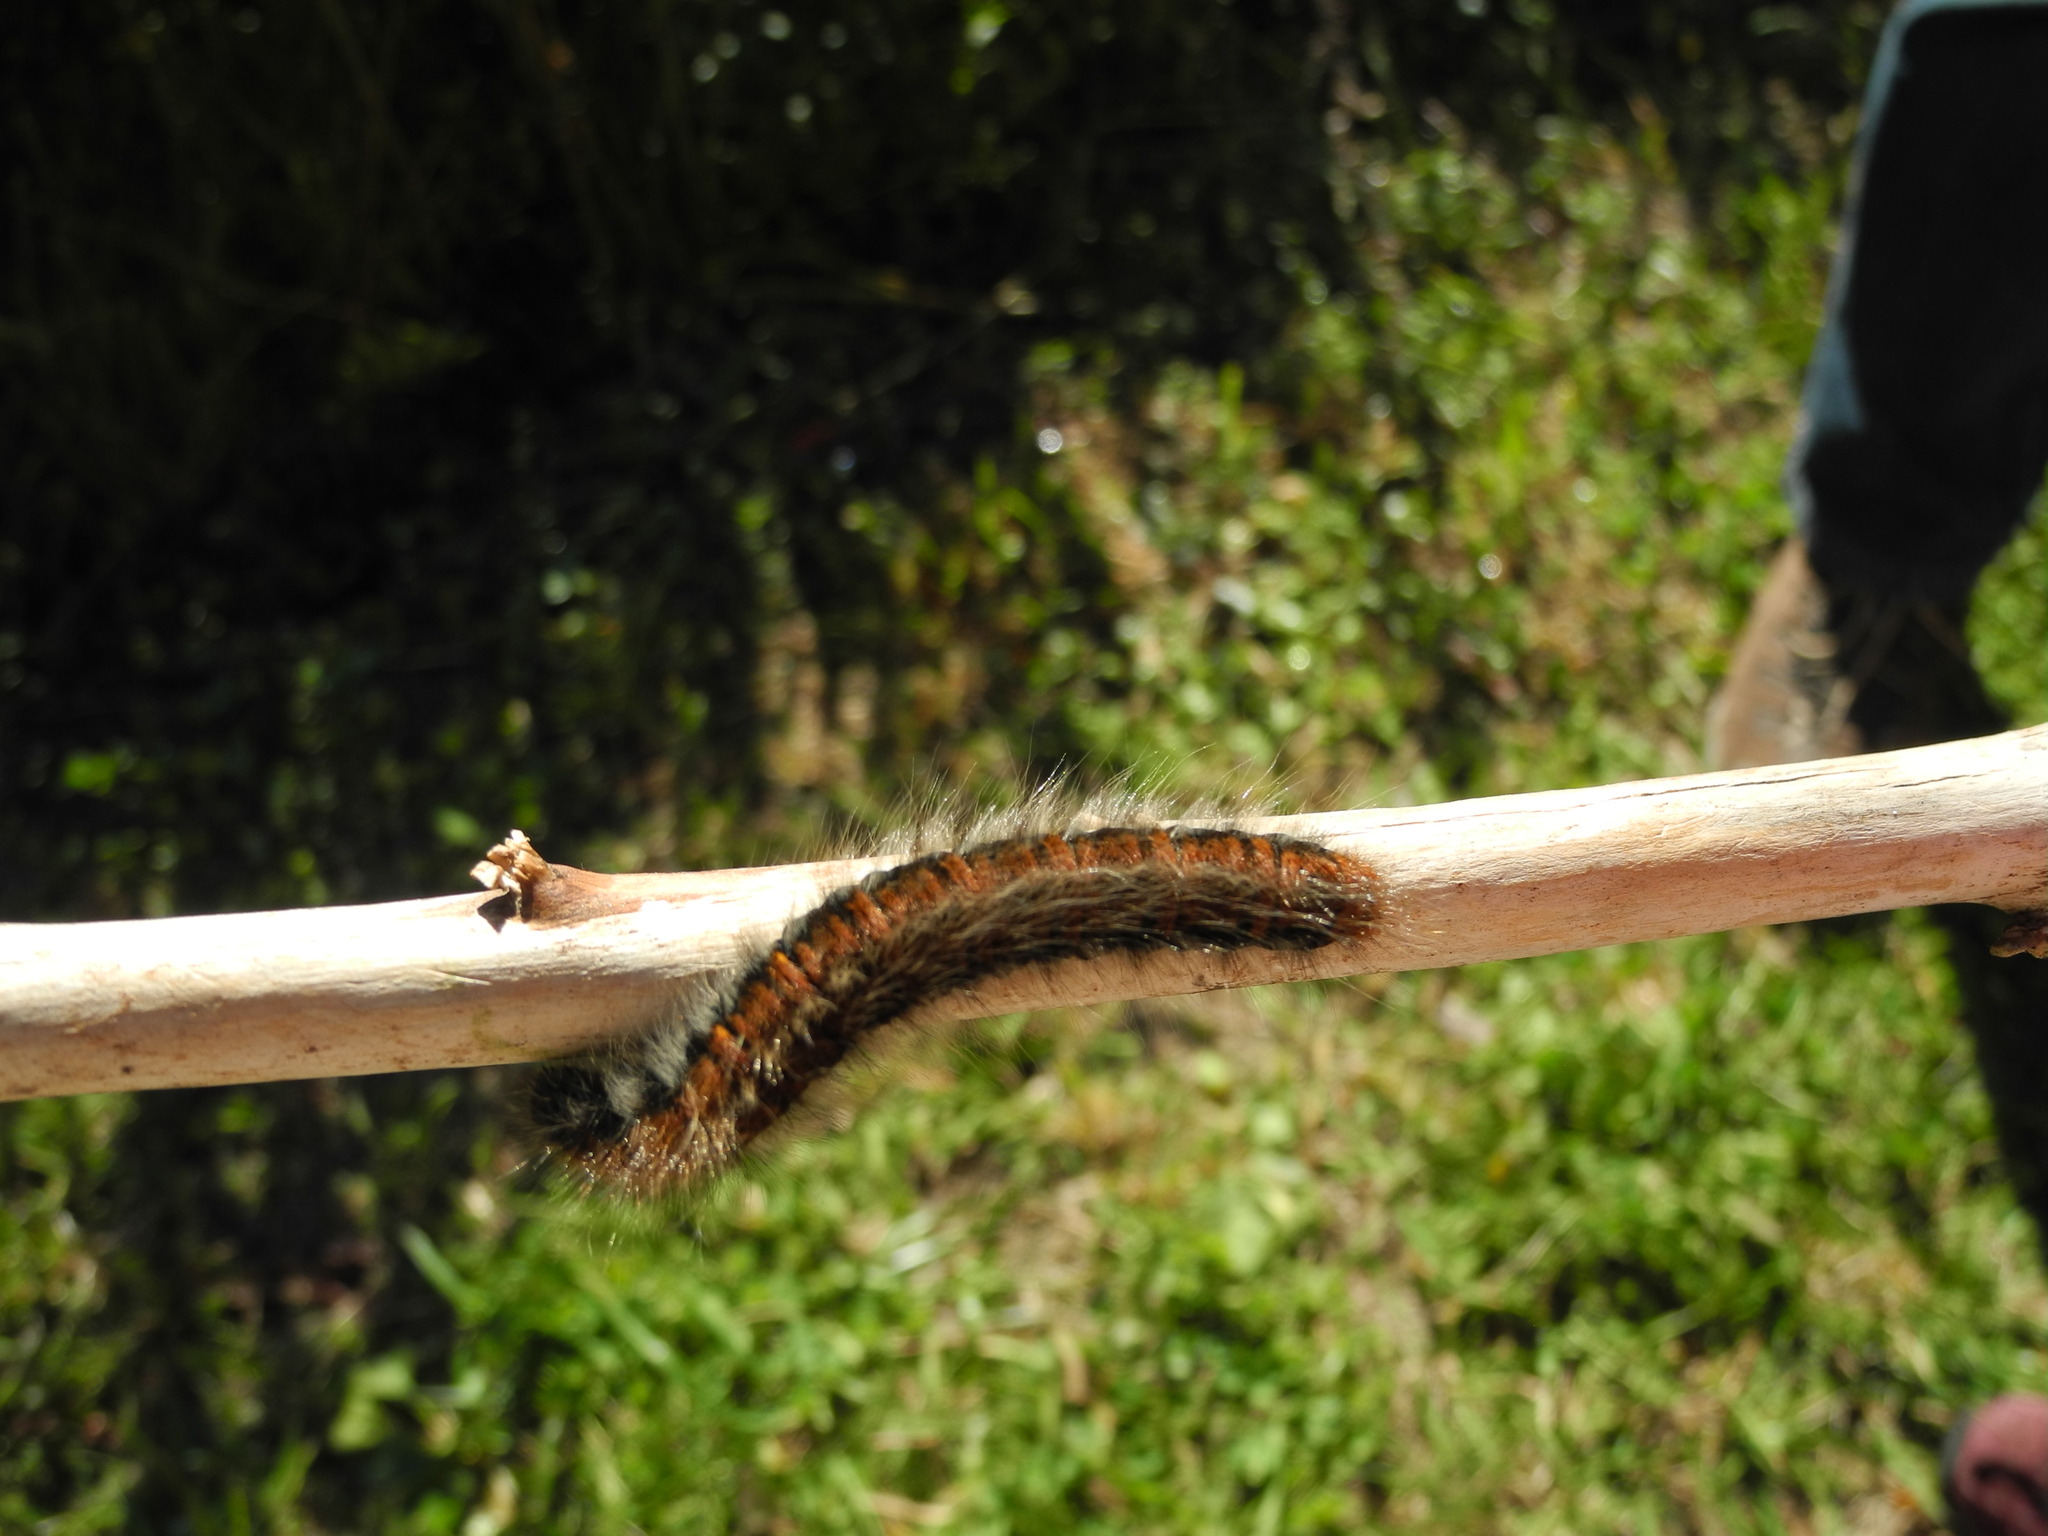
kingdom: Animalia
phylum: Arthropoda
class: Insecta
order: Lepidoptera
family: Lasiocampidae
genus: Macrothylacia
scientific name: Macrothylacia rubi
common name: Fox moth
